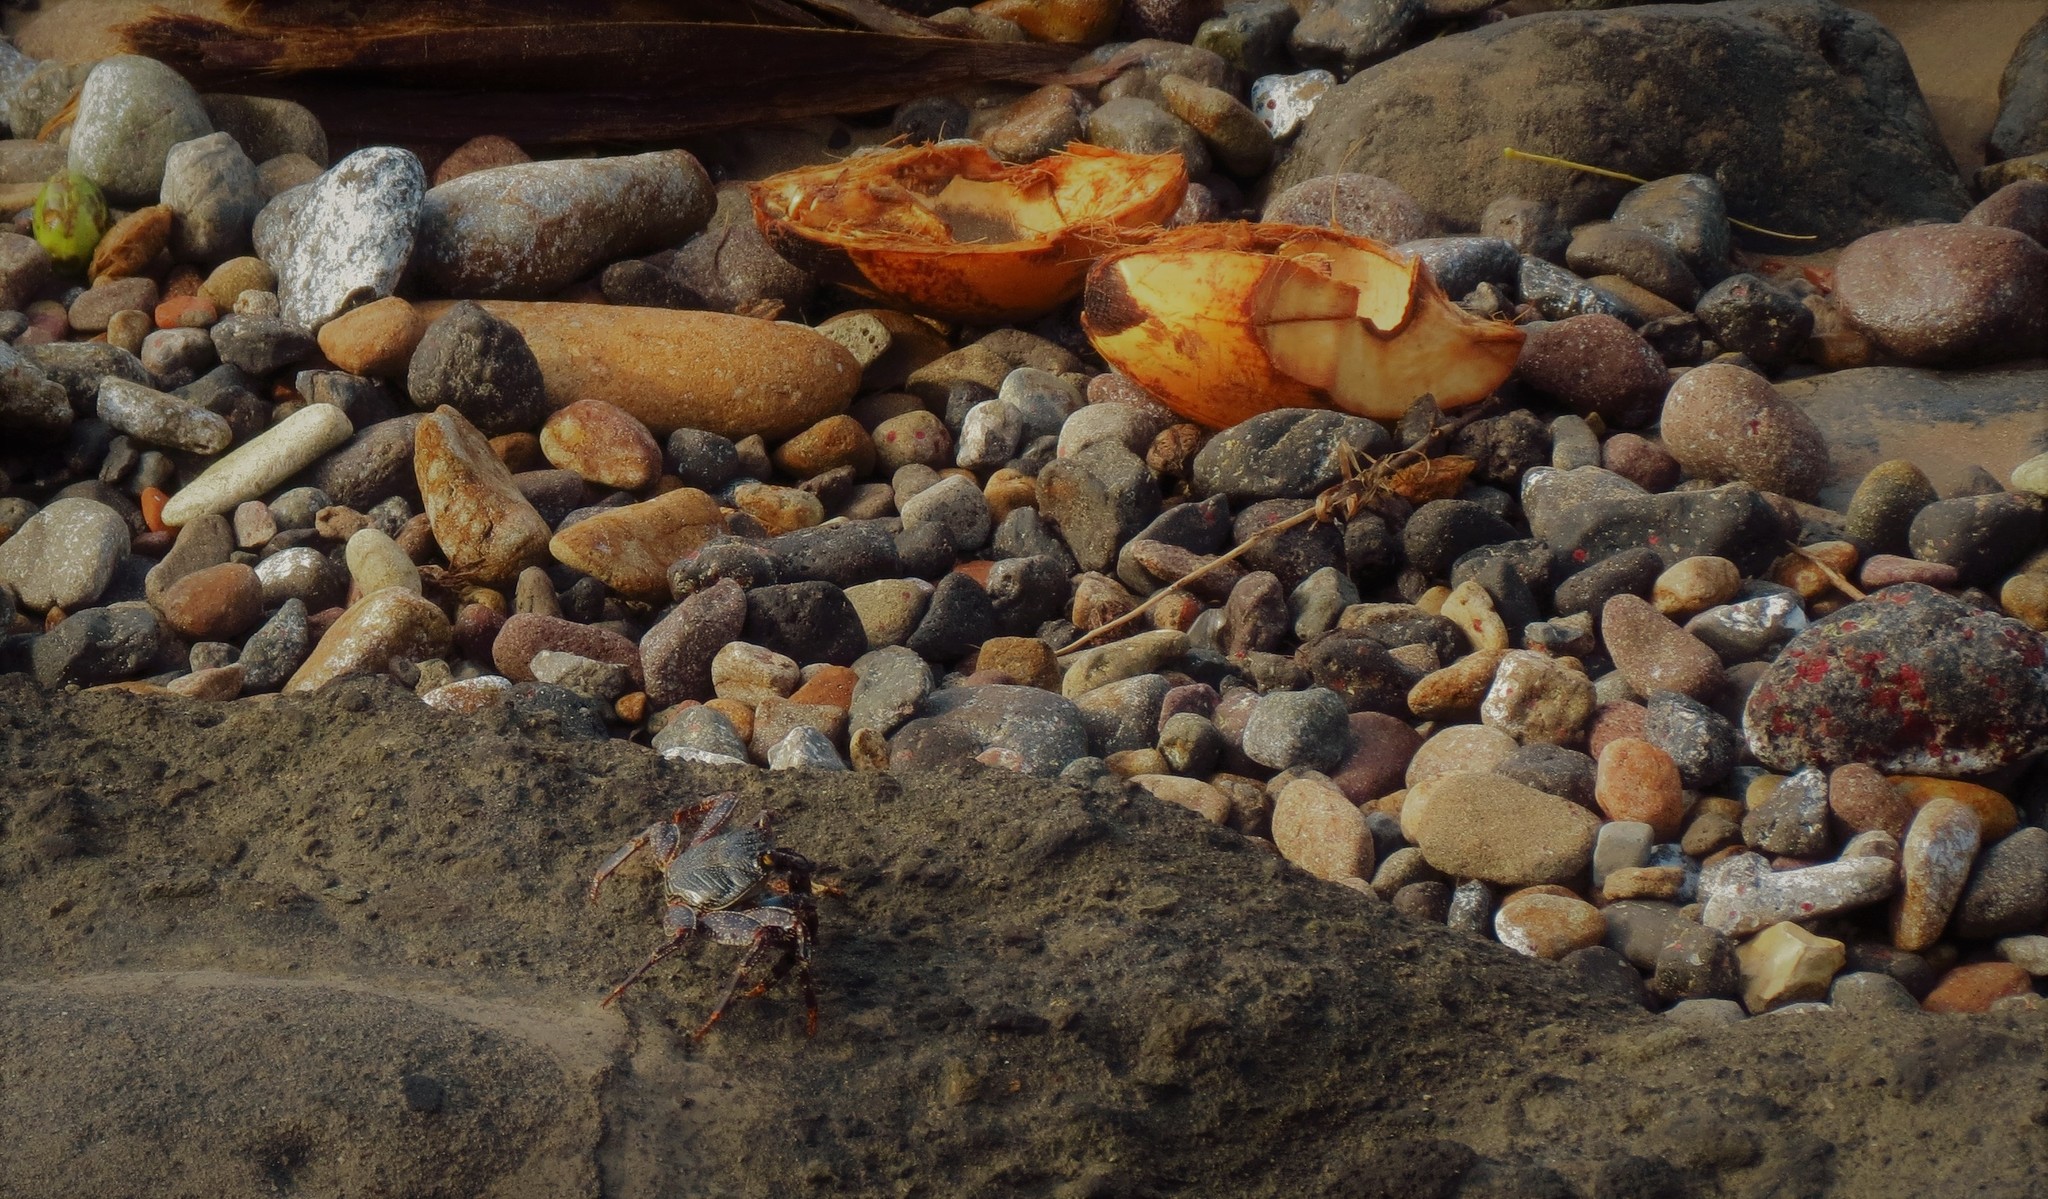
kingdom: Animalia
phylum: Arthropoda
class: Malacostraca
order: Decapoda
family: Grapsidae
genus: Grapsus
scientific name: Grapsus grapsus
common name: Sally lightfoot
